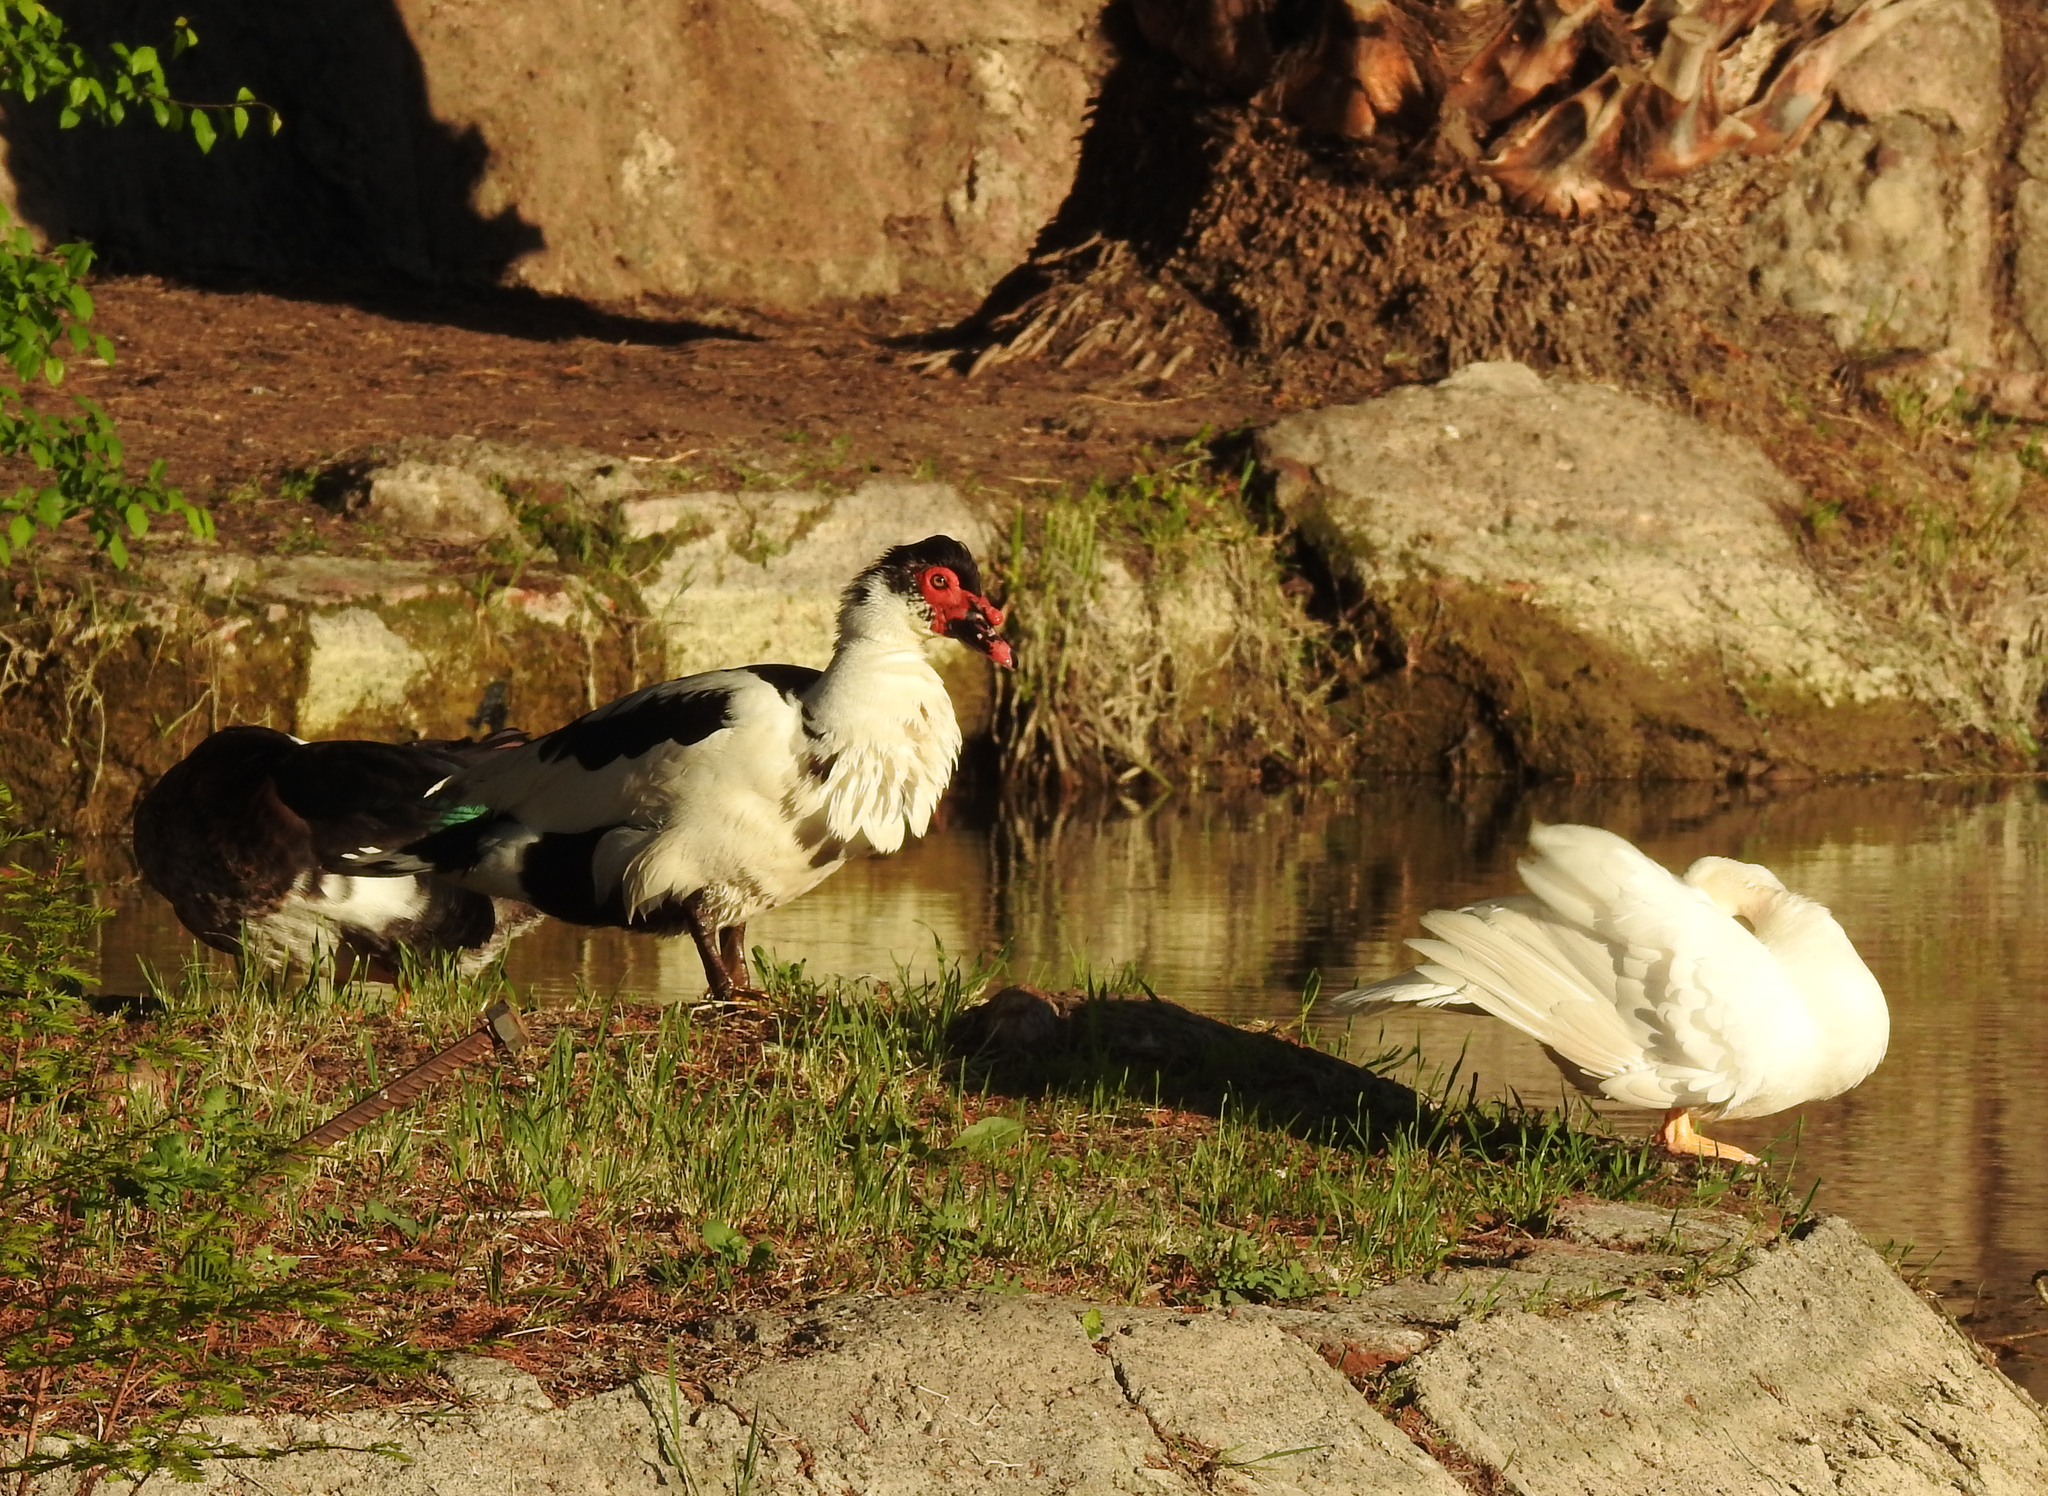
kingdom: Animalia
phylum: Chordata
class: Aves
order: Anseriformes
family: Anatidae
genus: Cairina
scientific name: Cairina moschata
